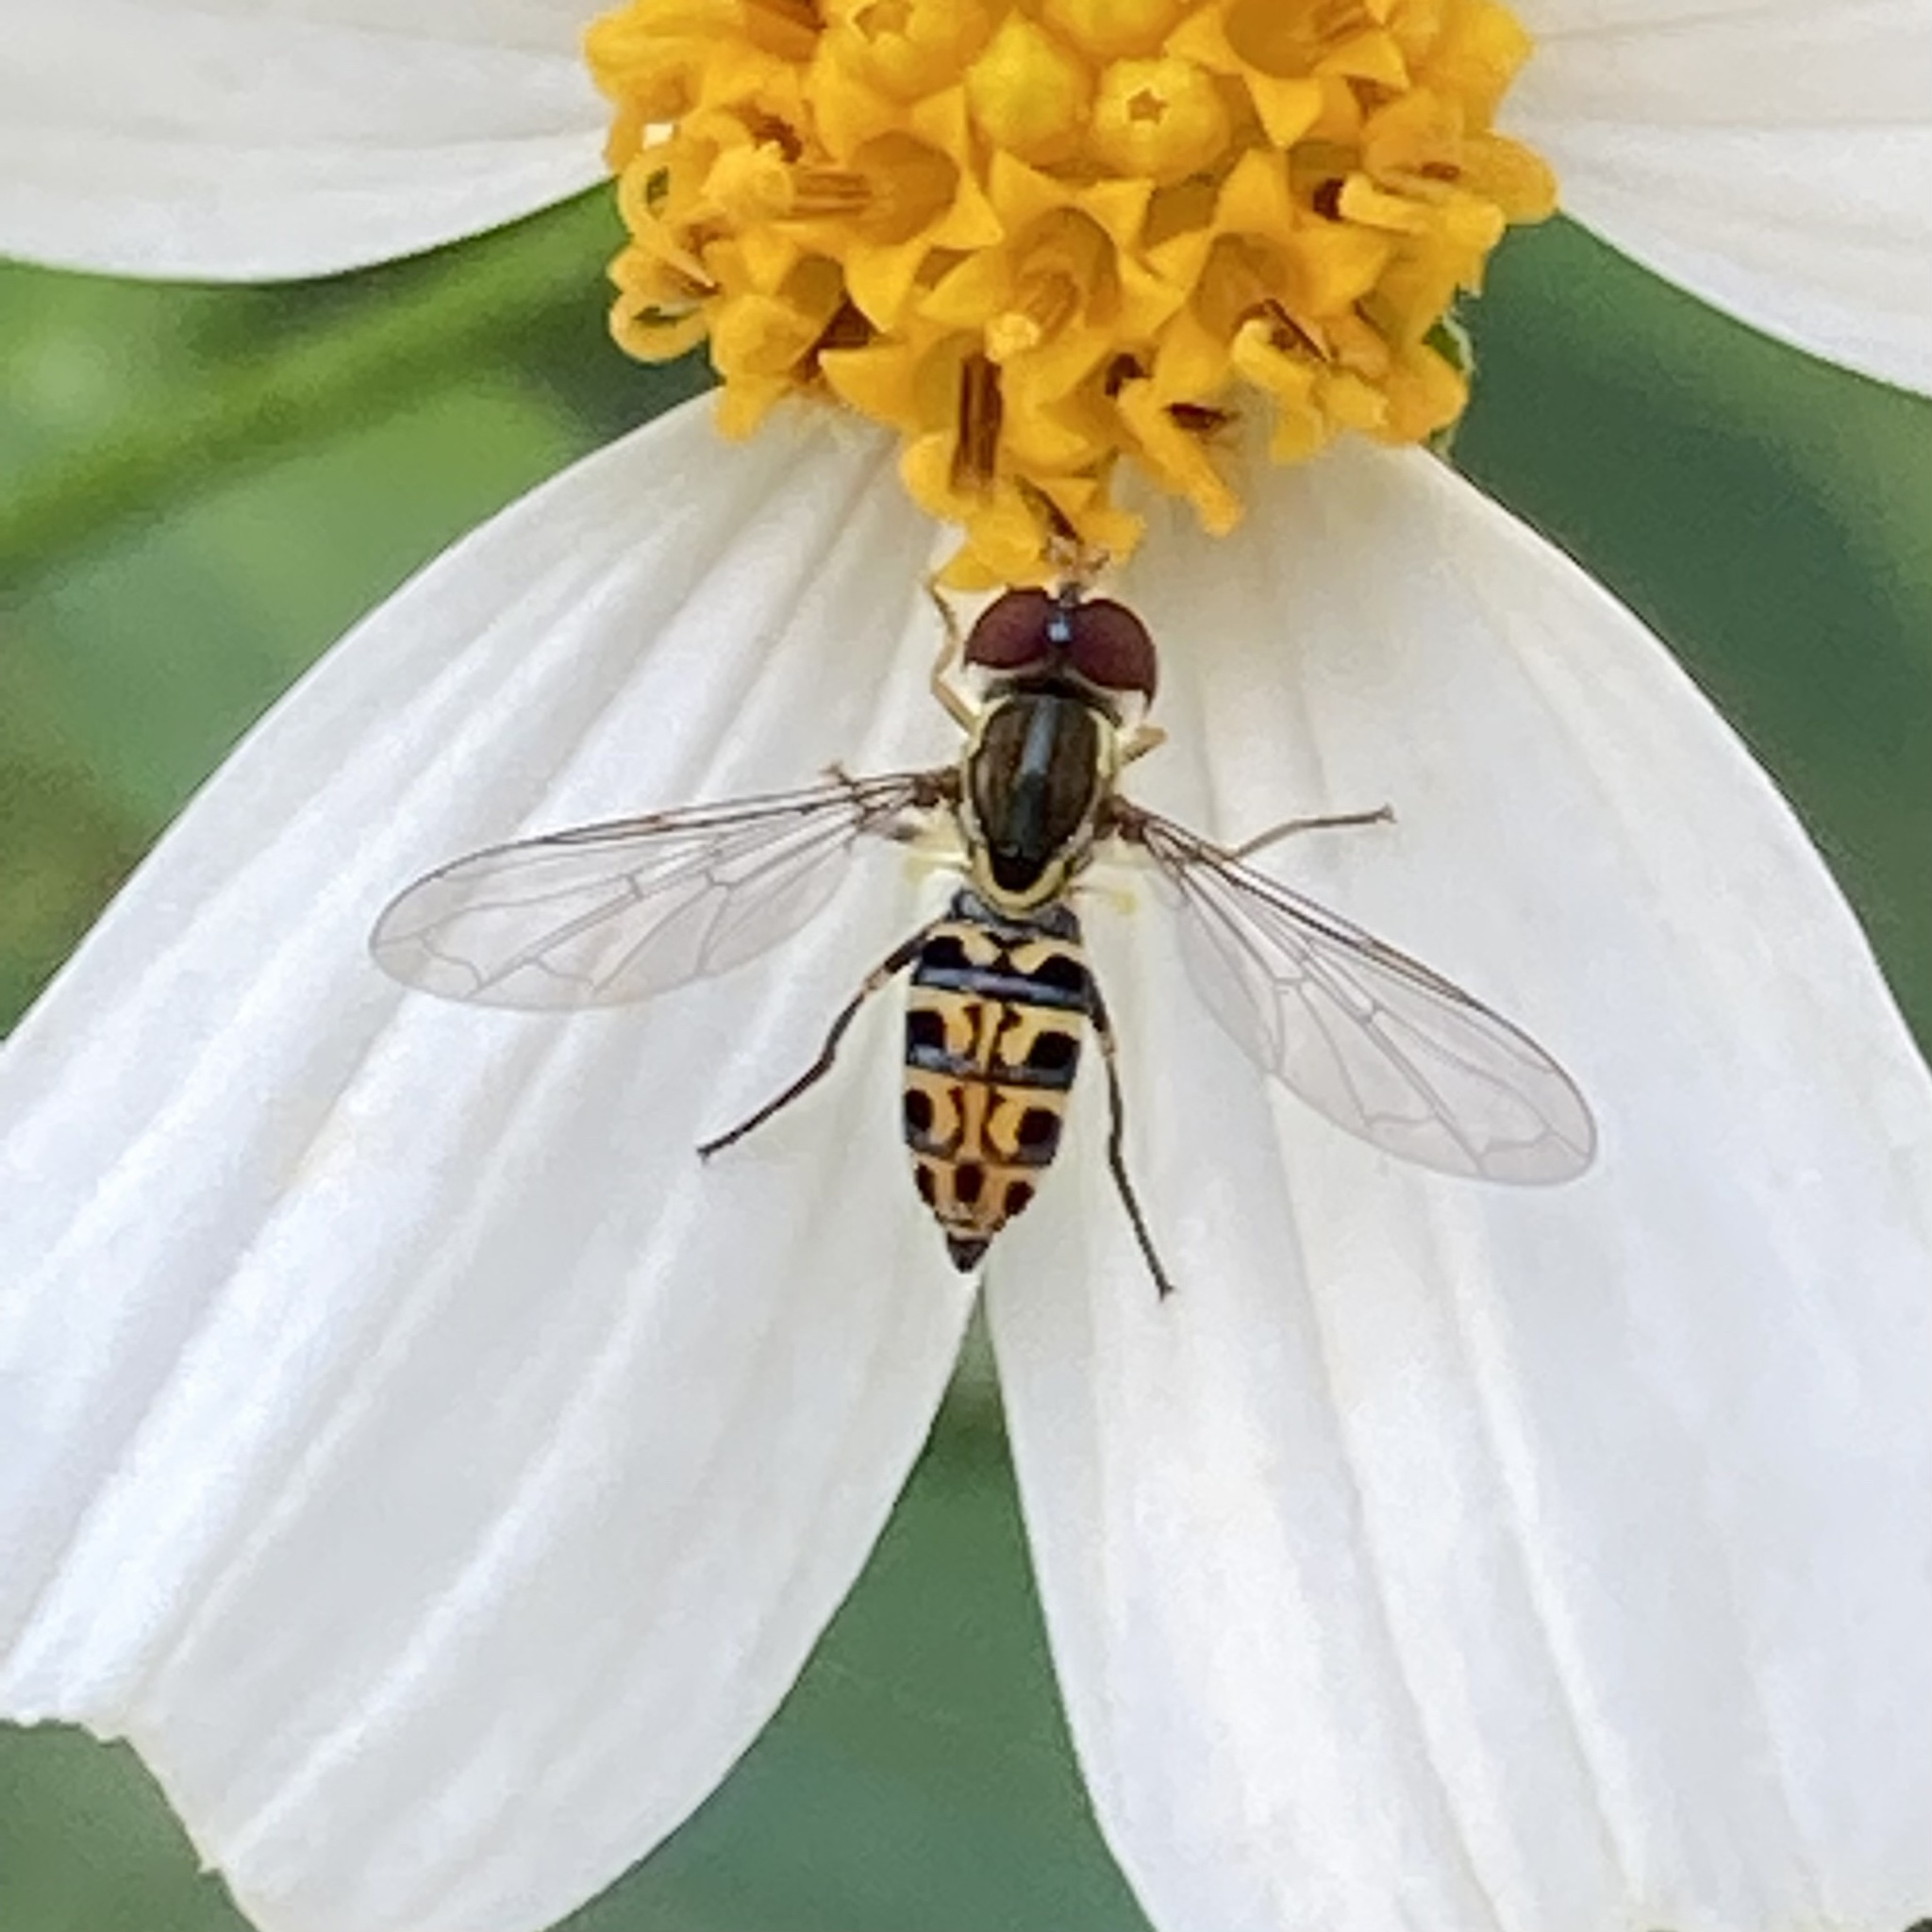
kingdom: Animalia
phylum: Arthropoda
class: Insecta
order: Diptera
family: Syrphidae
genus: Toxomerus
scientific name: Toxomerus arcifer
